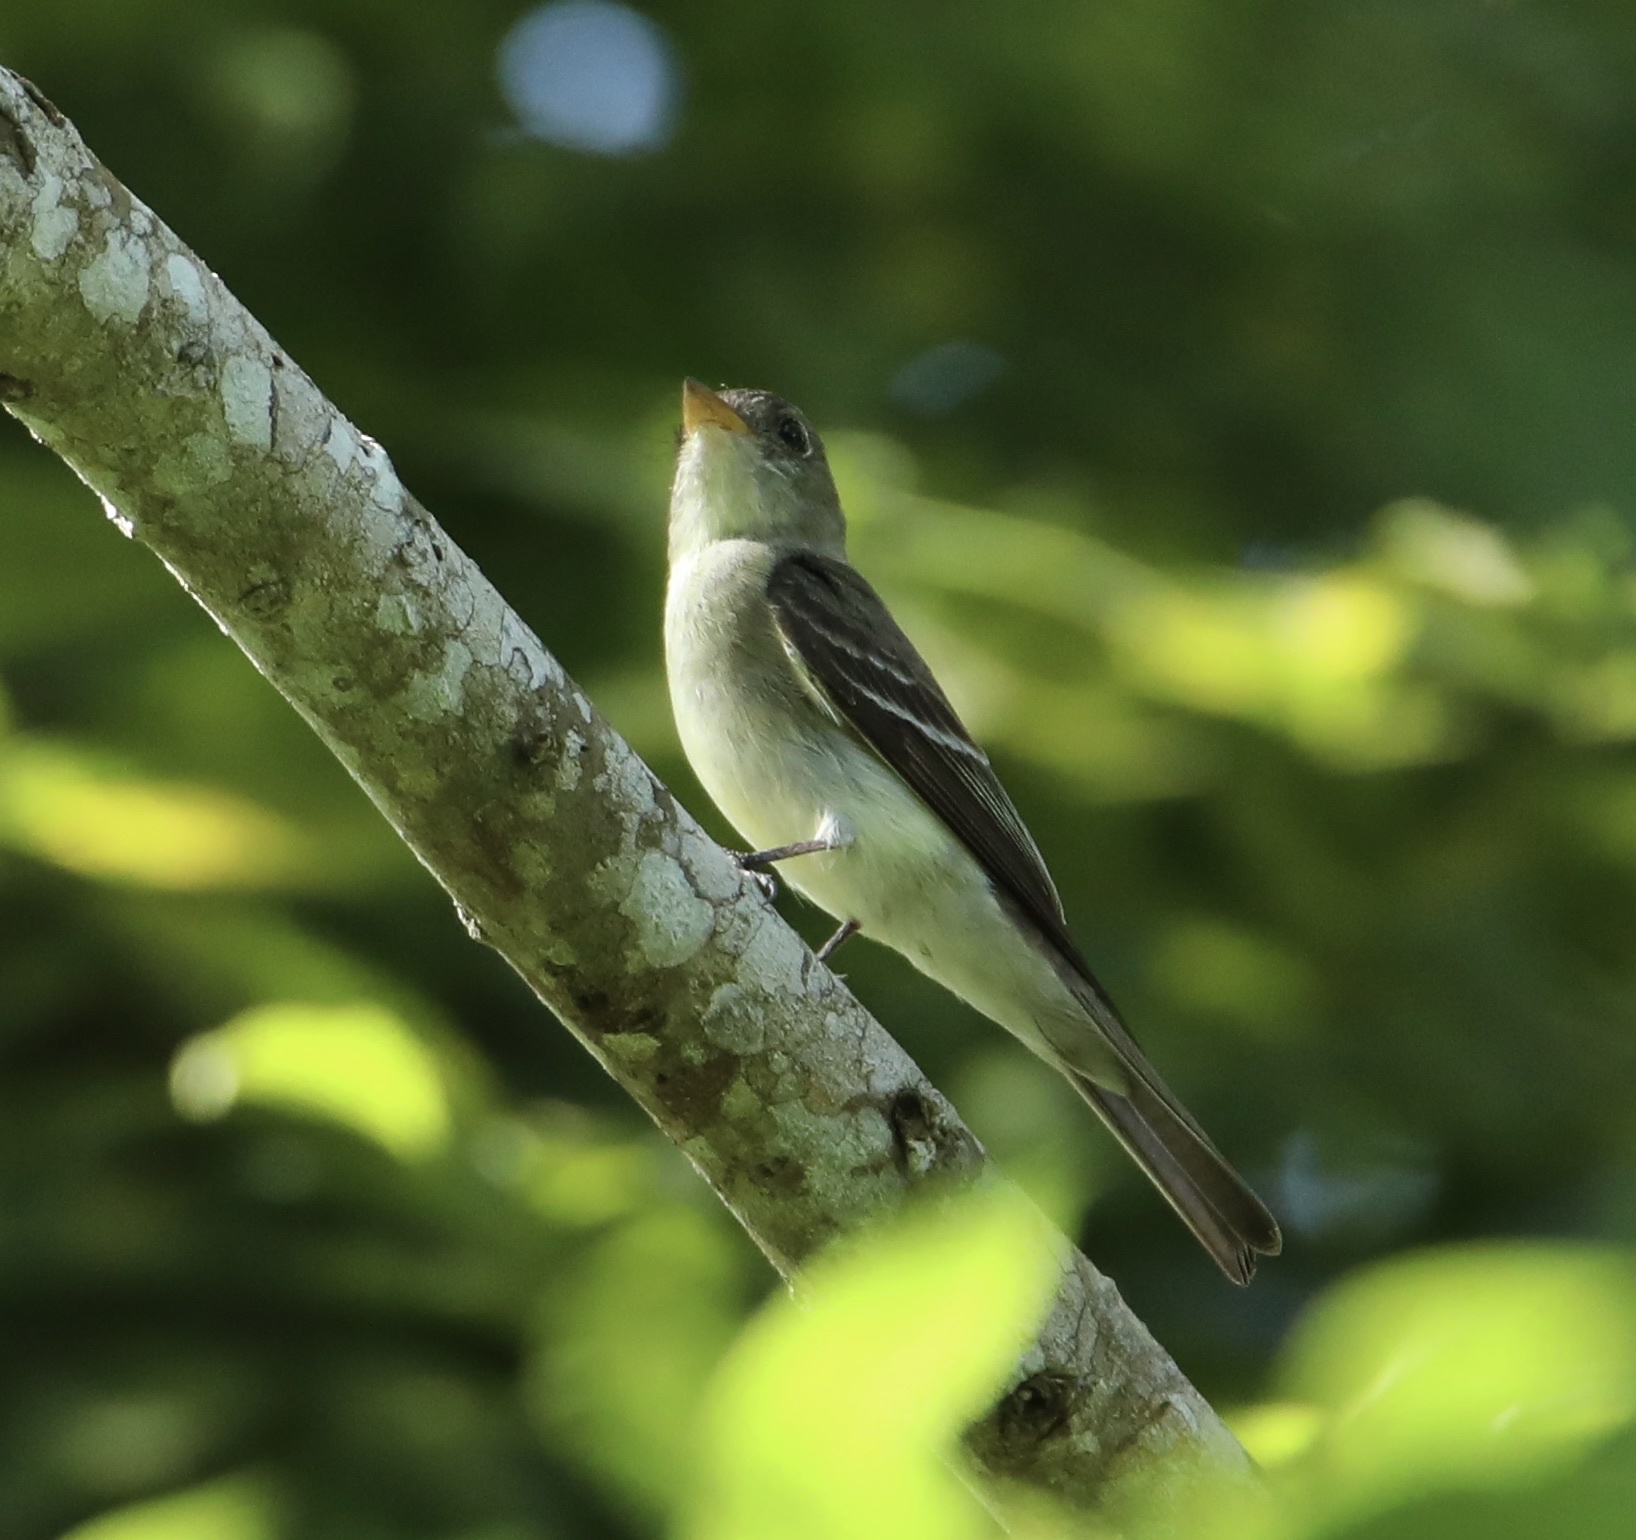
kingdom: Animalia
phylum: Chordata
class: Aves
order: Passeriformes
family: Tyrannidae
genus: Contopus
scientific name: Contopus virens
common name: Eastern wood-pewee
